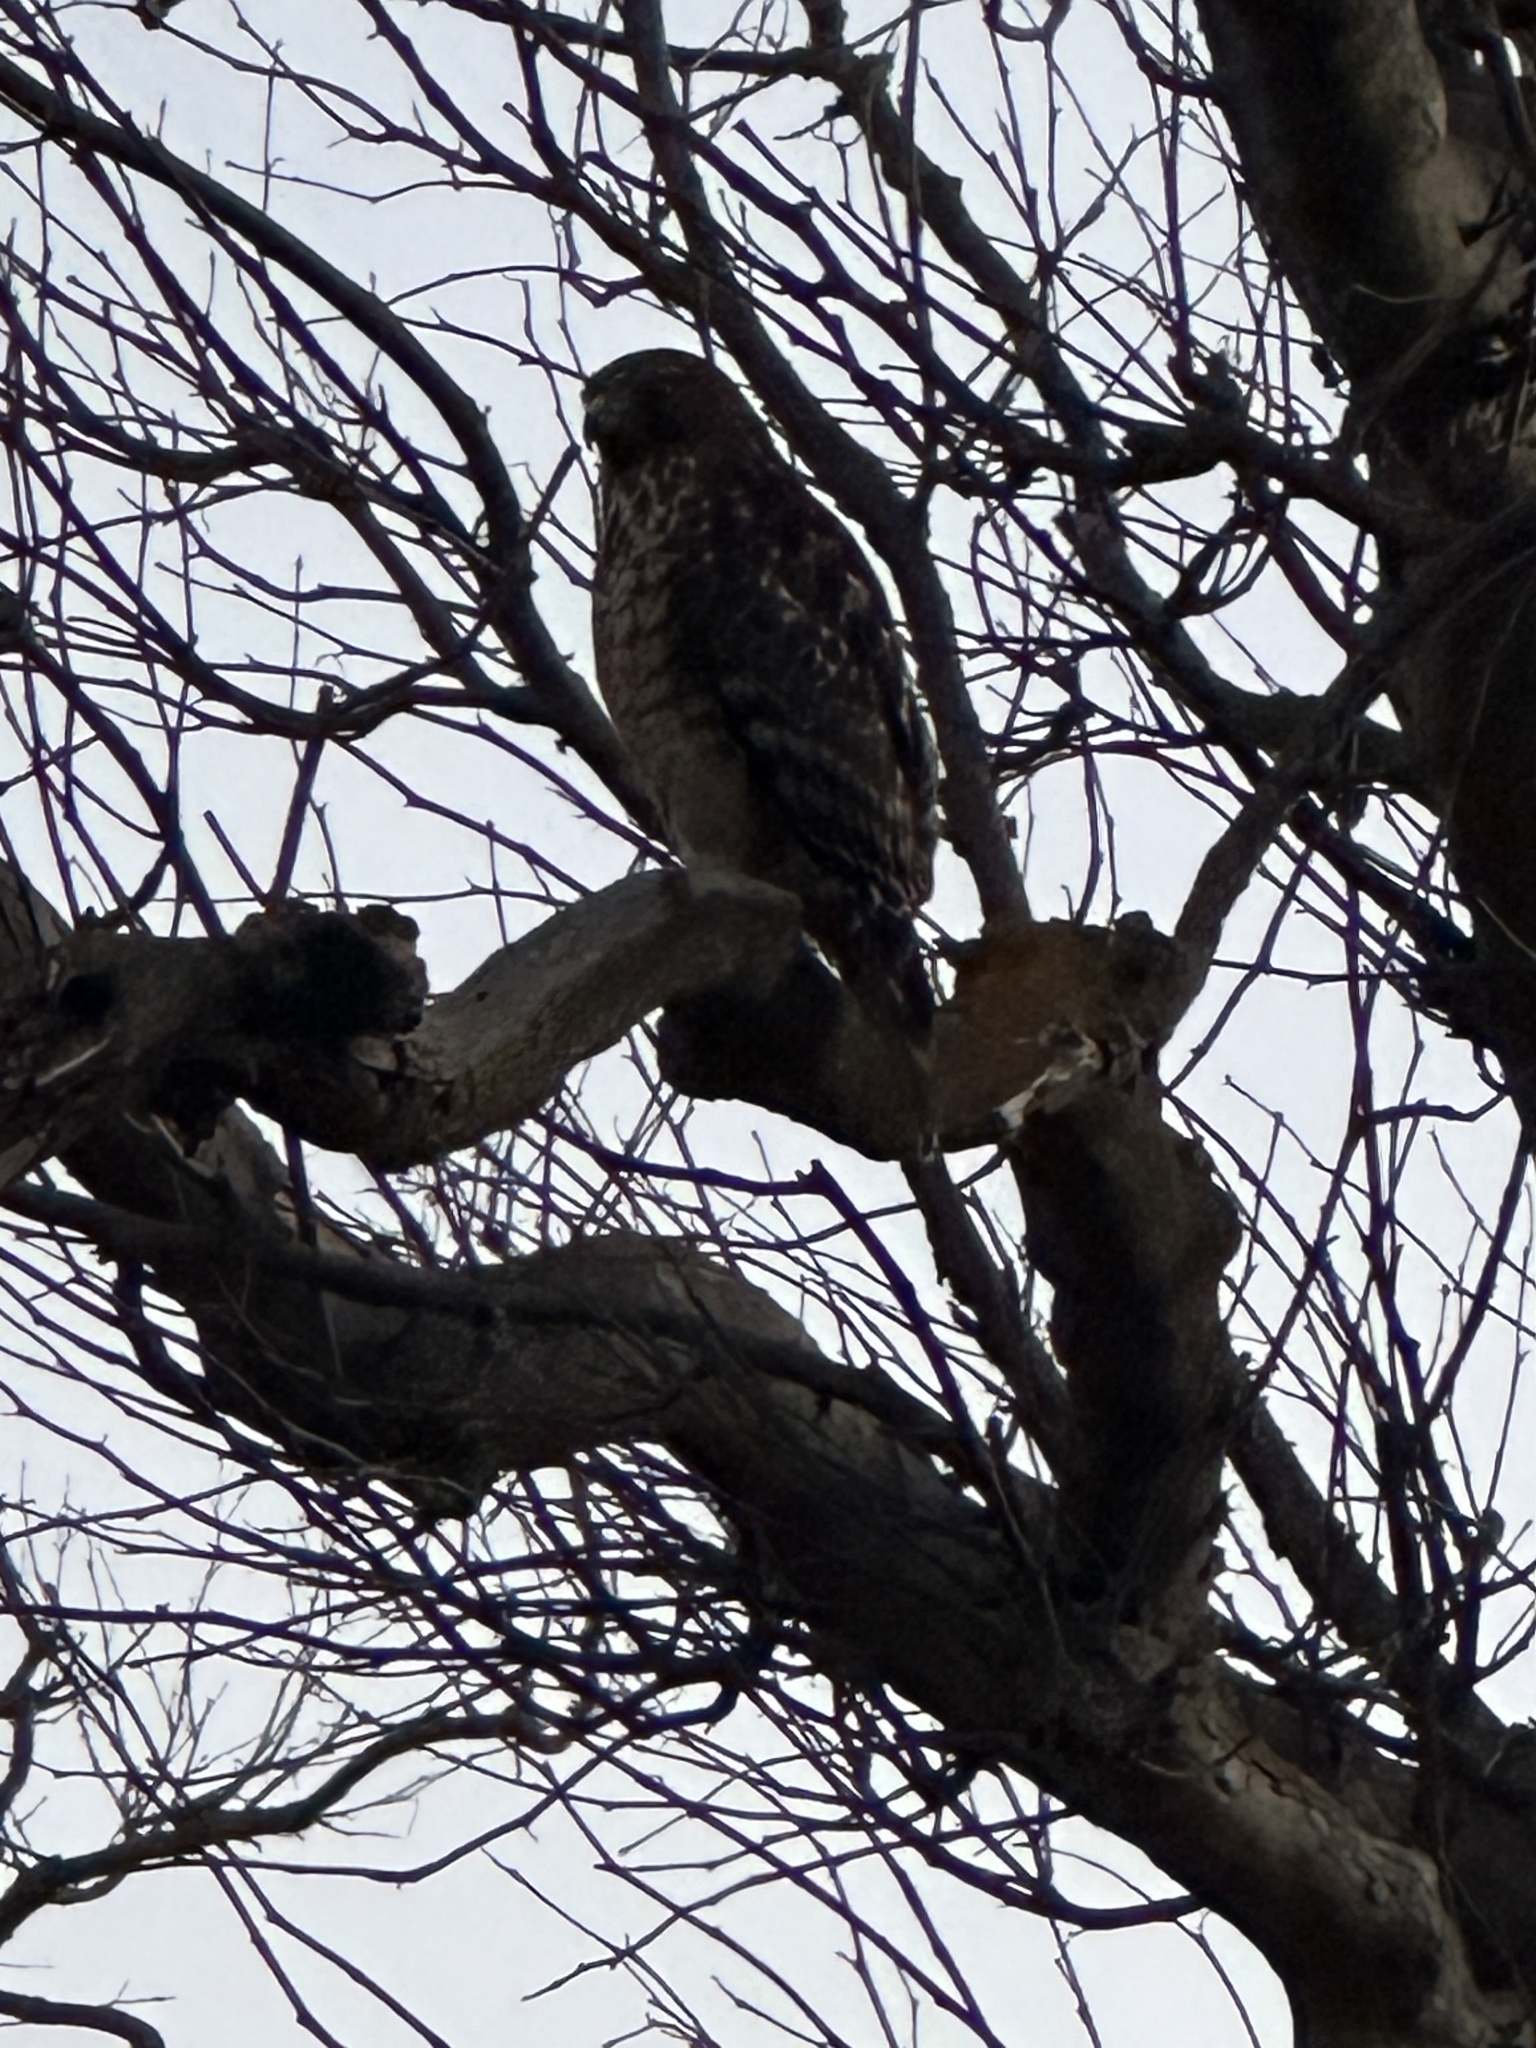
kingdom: Animalia
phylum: Chordata
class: Aves
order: Accipitriformes
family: Accipitridae
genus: Buteo
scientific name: Buteo lineatus
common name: Red-shouldered hawk
